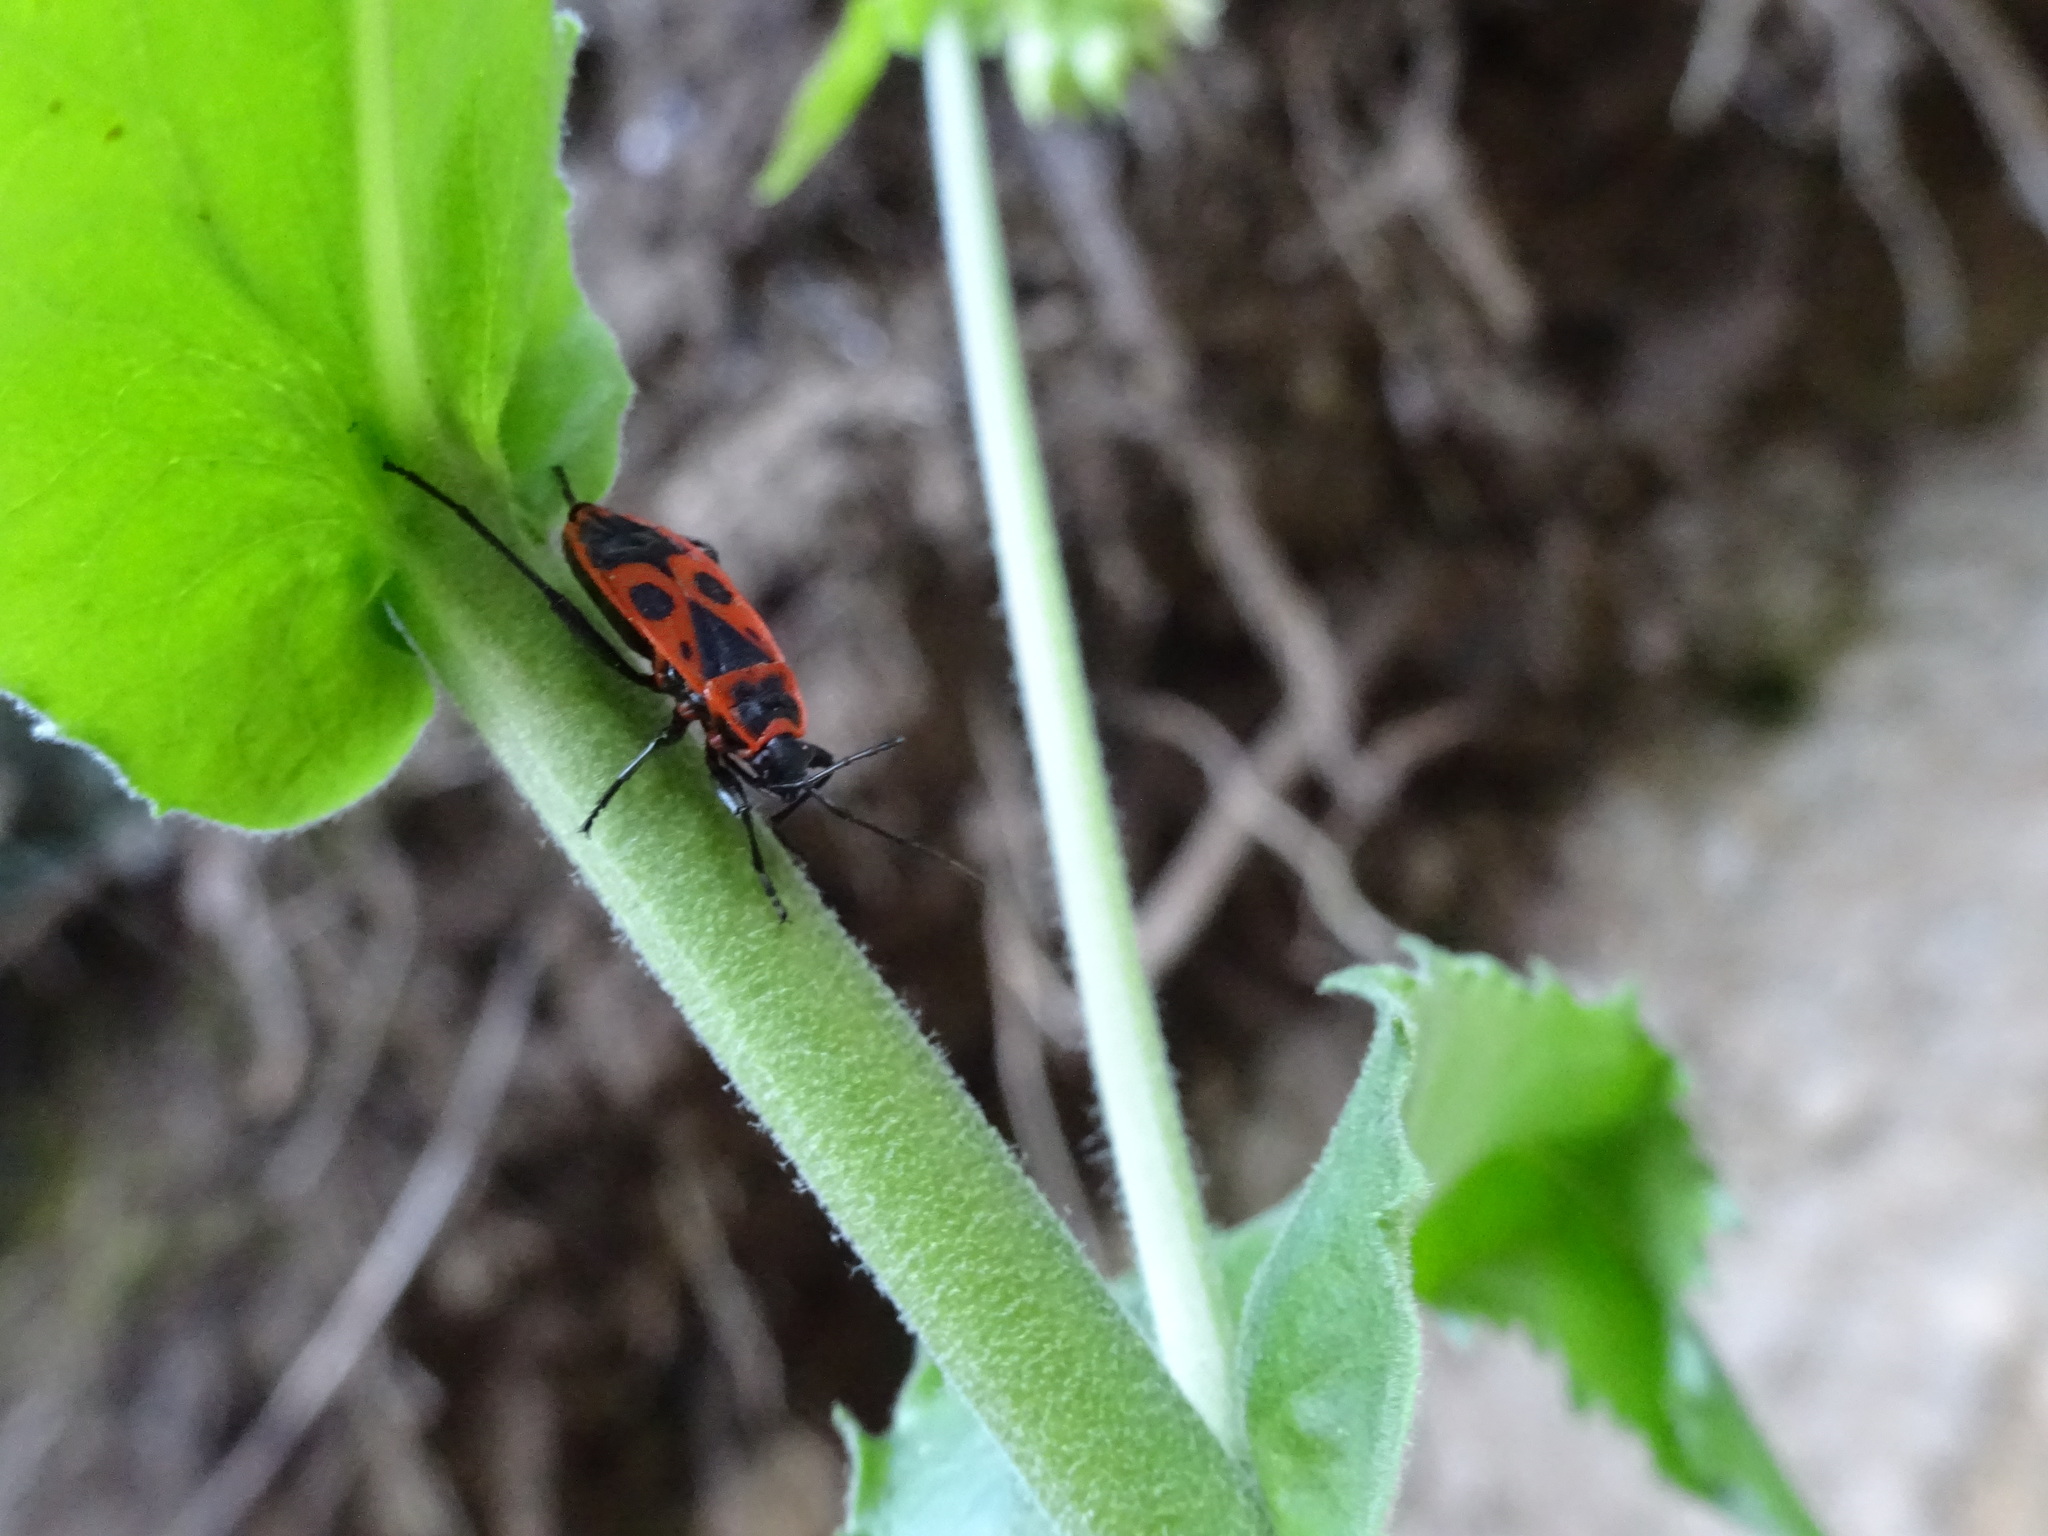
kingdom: Animalia
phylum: Arthropoda
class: Insecta
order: Hemiptera
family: Pyrrhocoridae
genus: Pyrrhocoris
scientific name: Pyrrhocoris apterus
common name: Firebug
